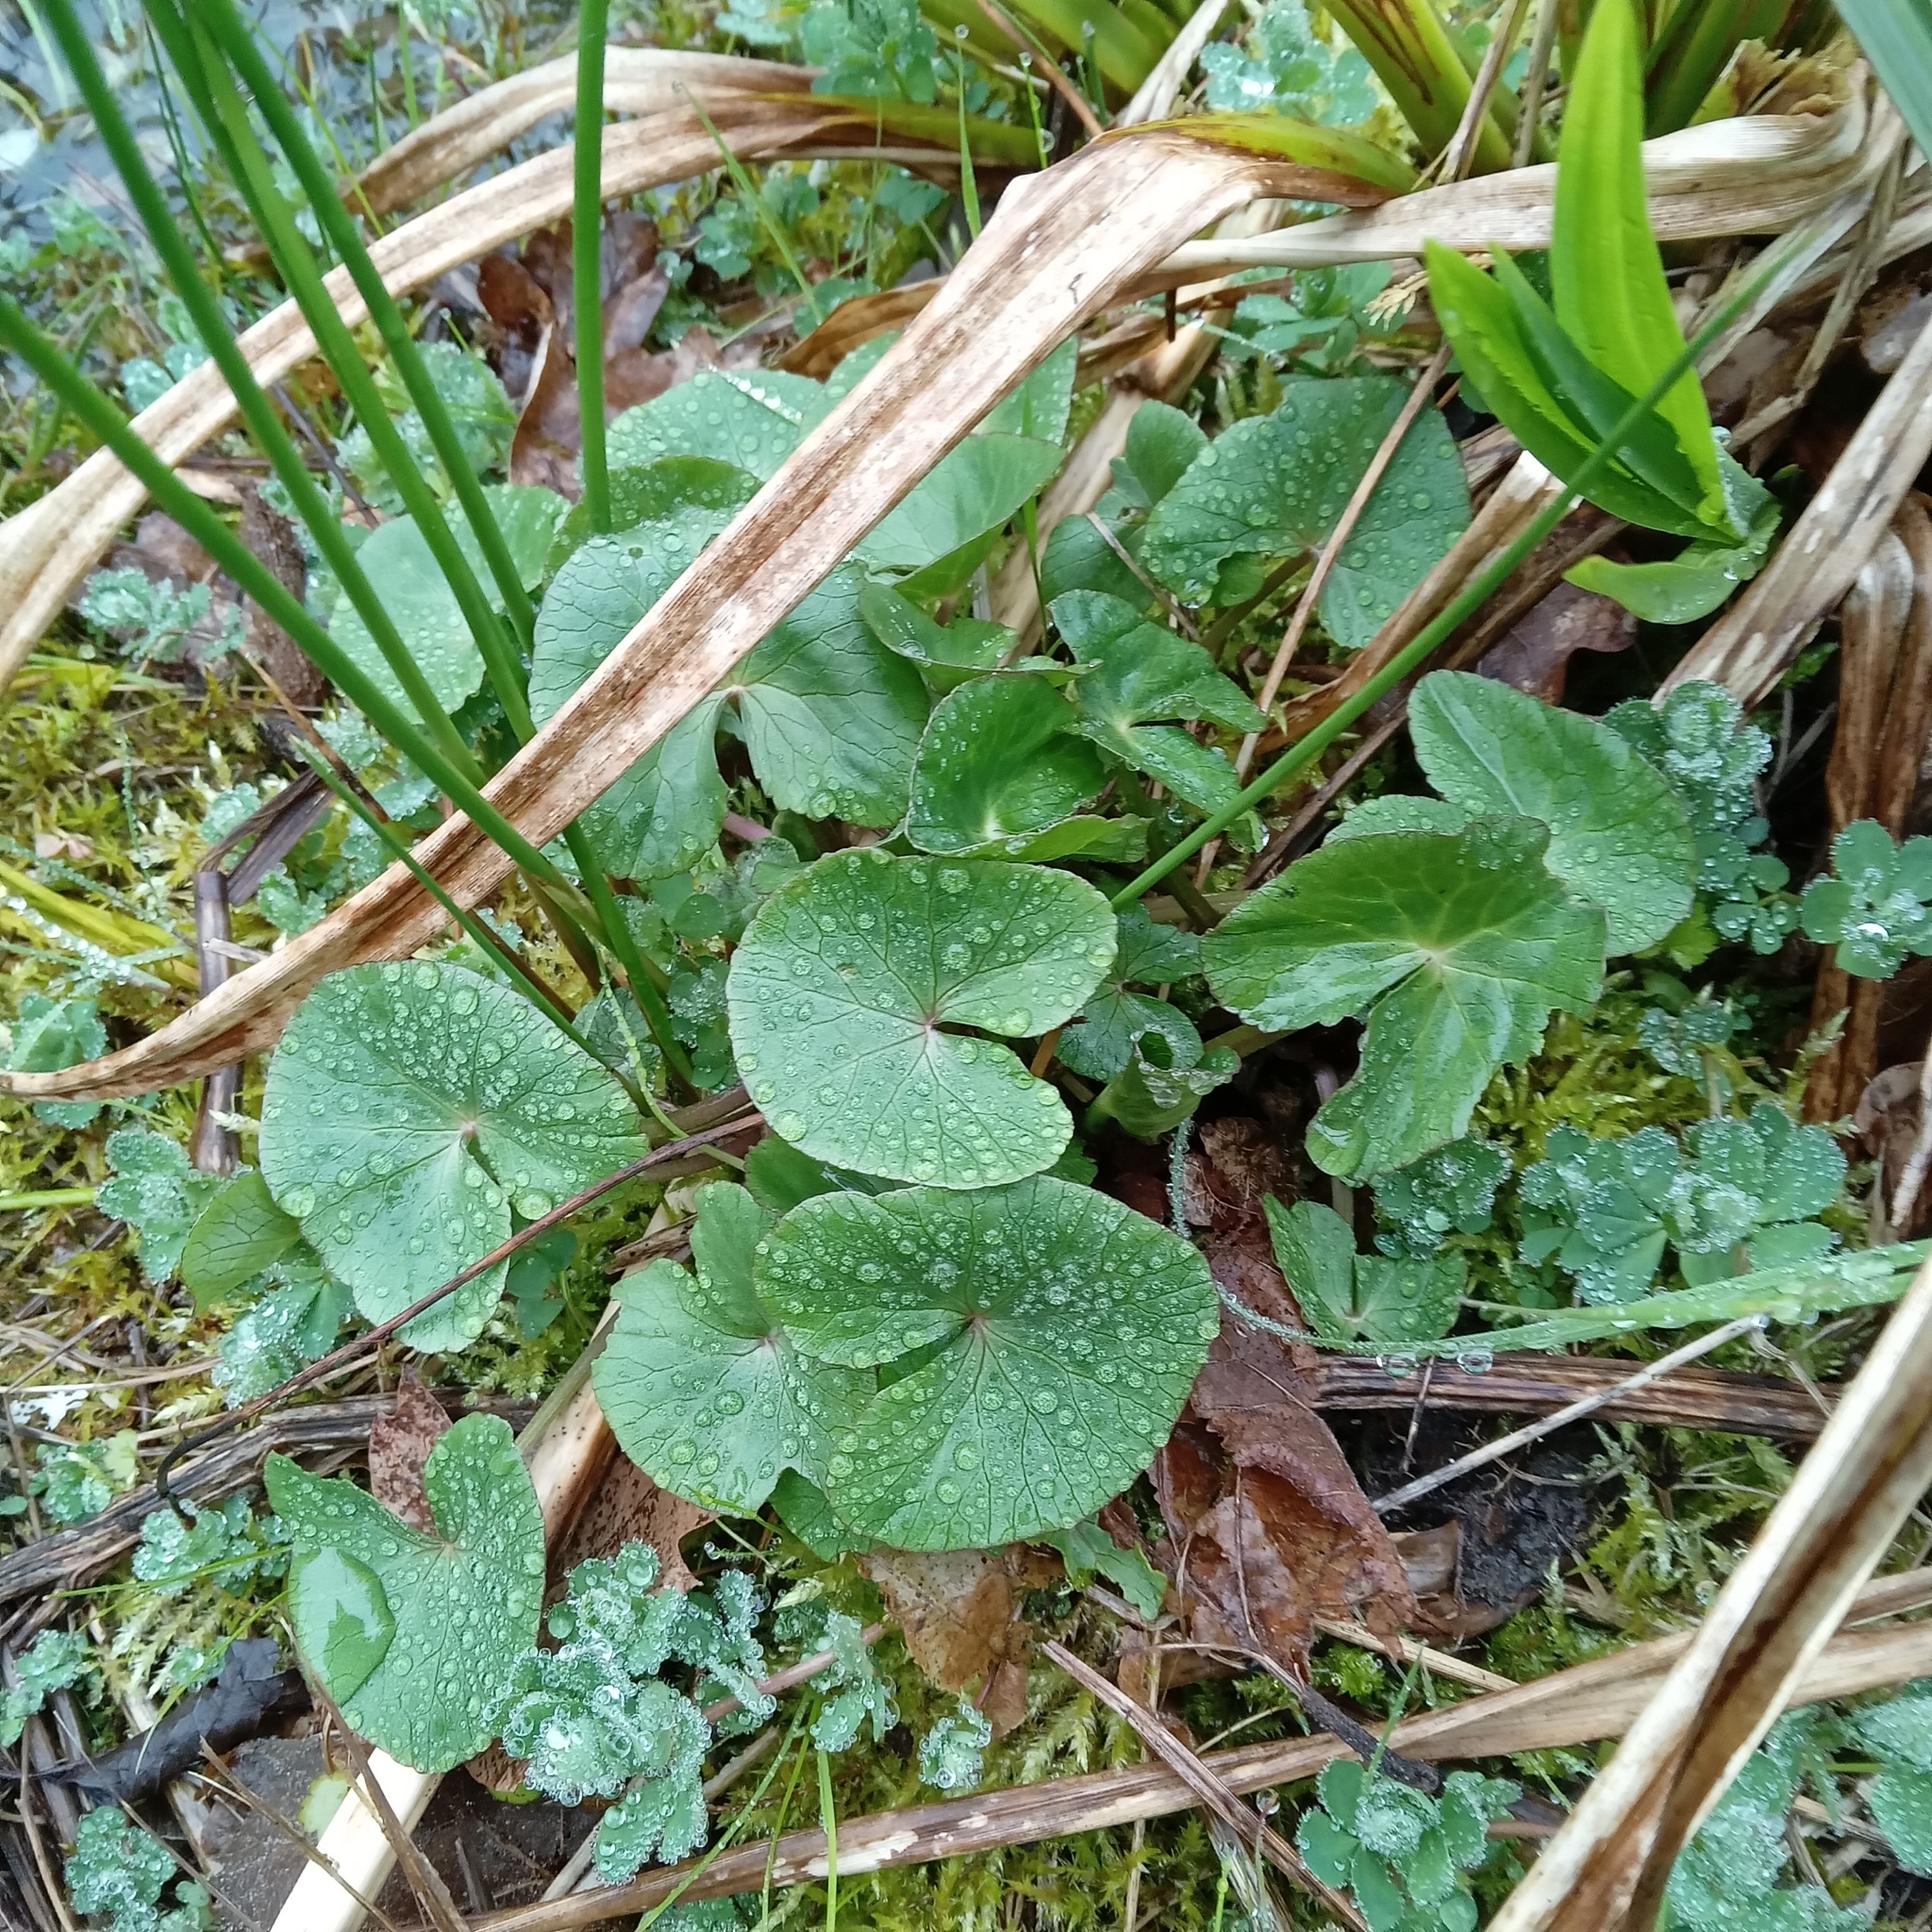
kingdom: Plantae
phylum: Tracheophyta
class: Magnoliopsida
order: Ranunculales
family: Ranunculaceae
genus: Caltha
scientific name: Caltha palustris
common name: Marsh marigold
